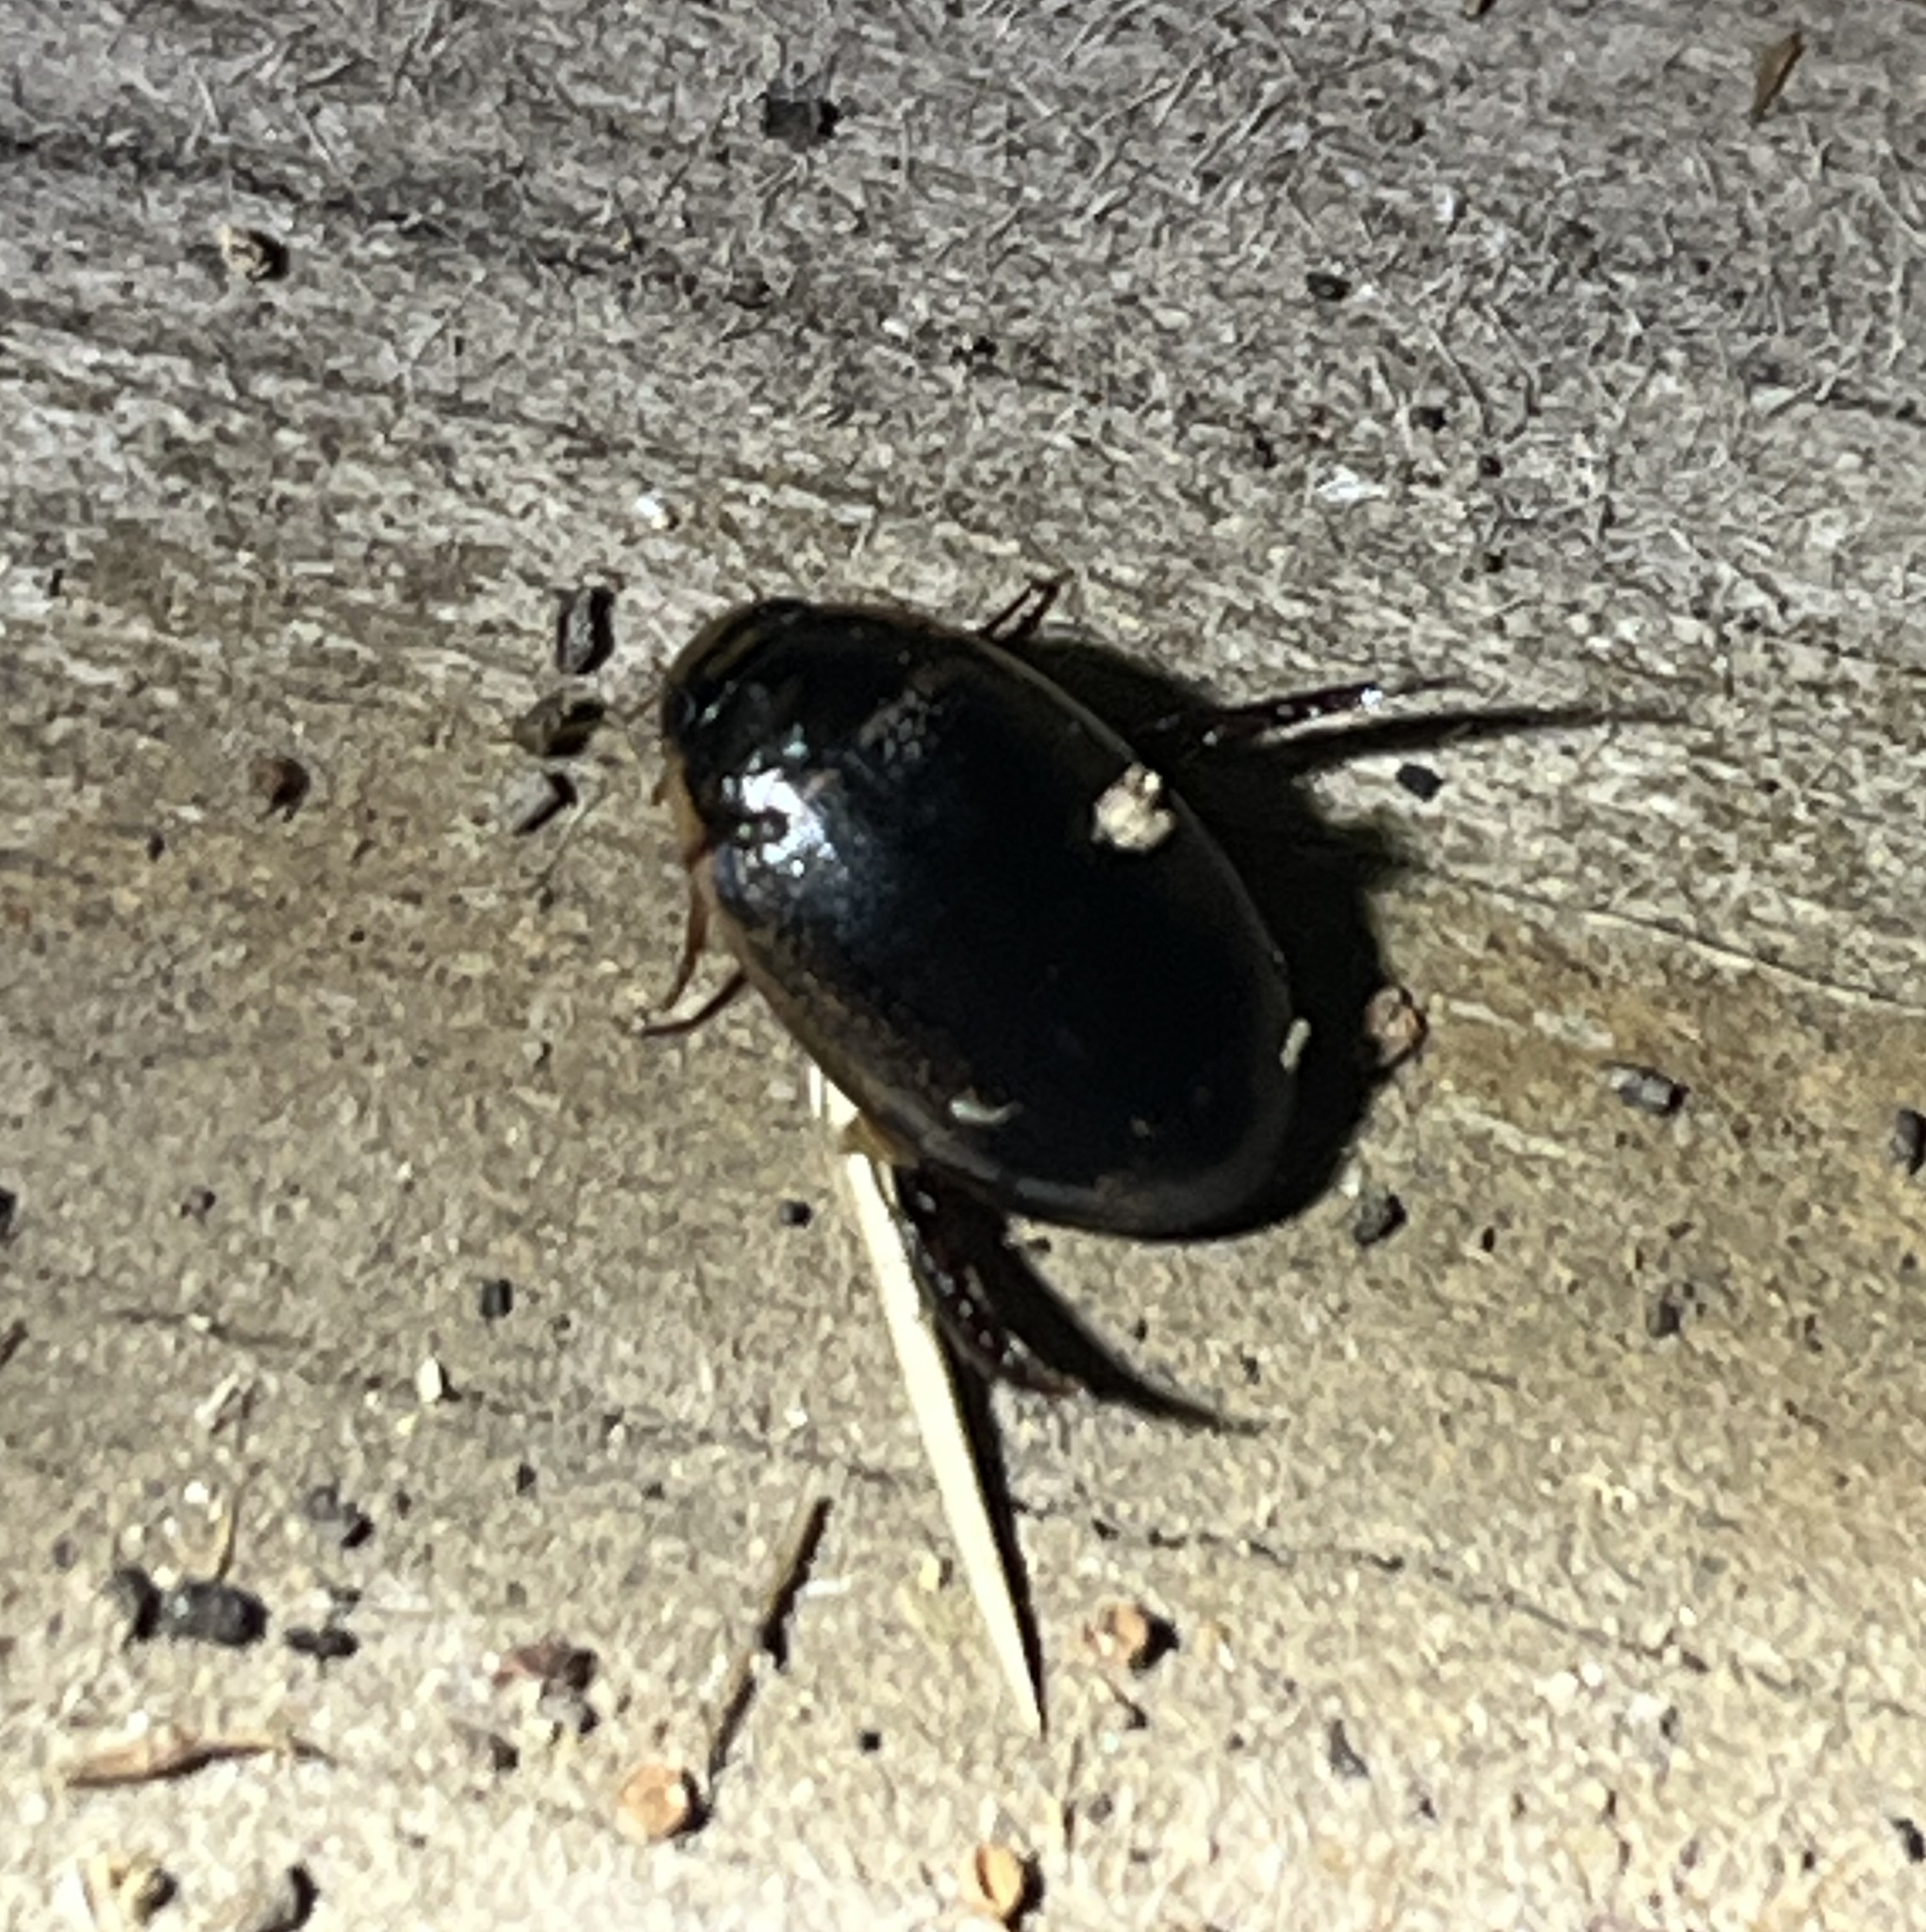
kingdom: Animalia
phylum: Arthropoda
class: Insecta
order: Coleoptera
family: Dytiscidae
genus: Thermonectus
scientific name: Thermonectus basillaris
